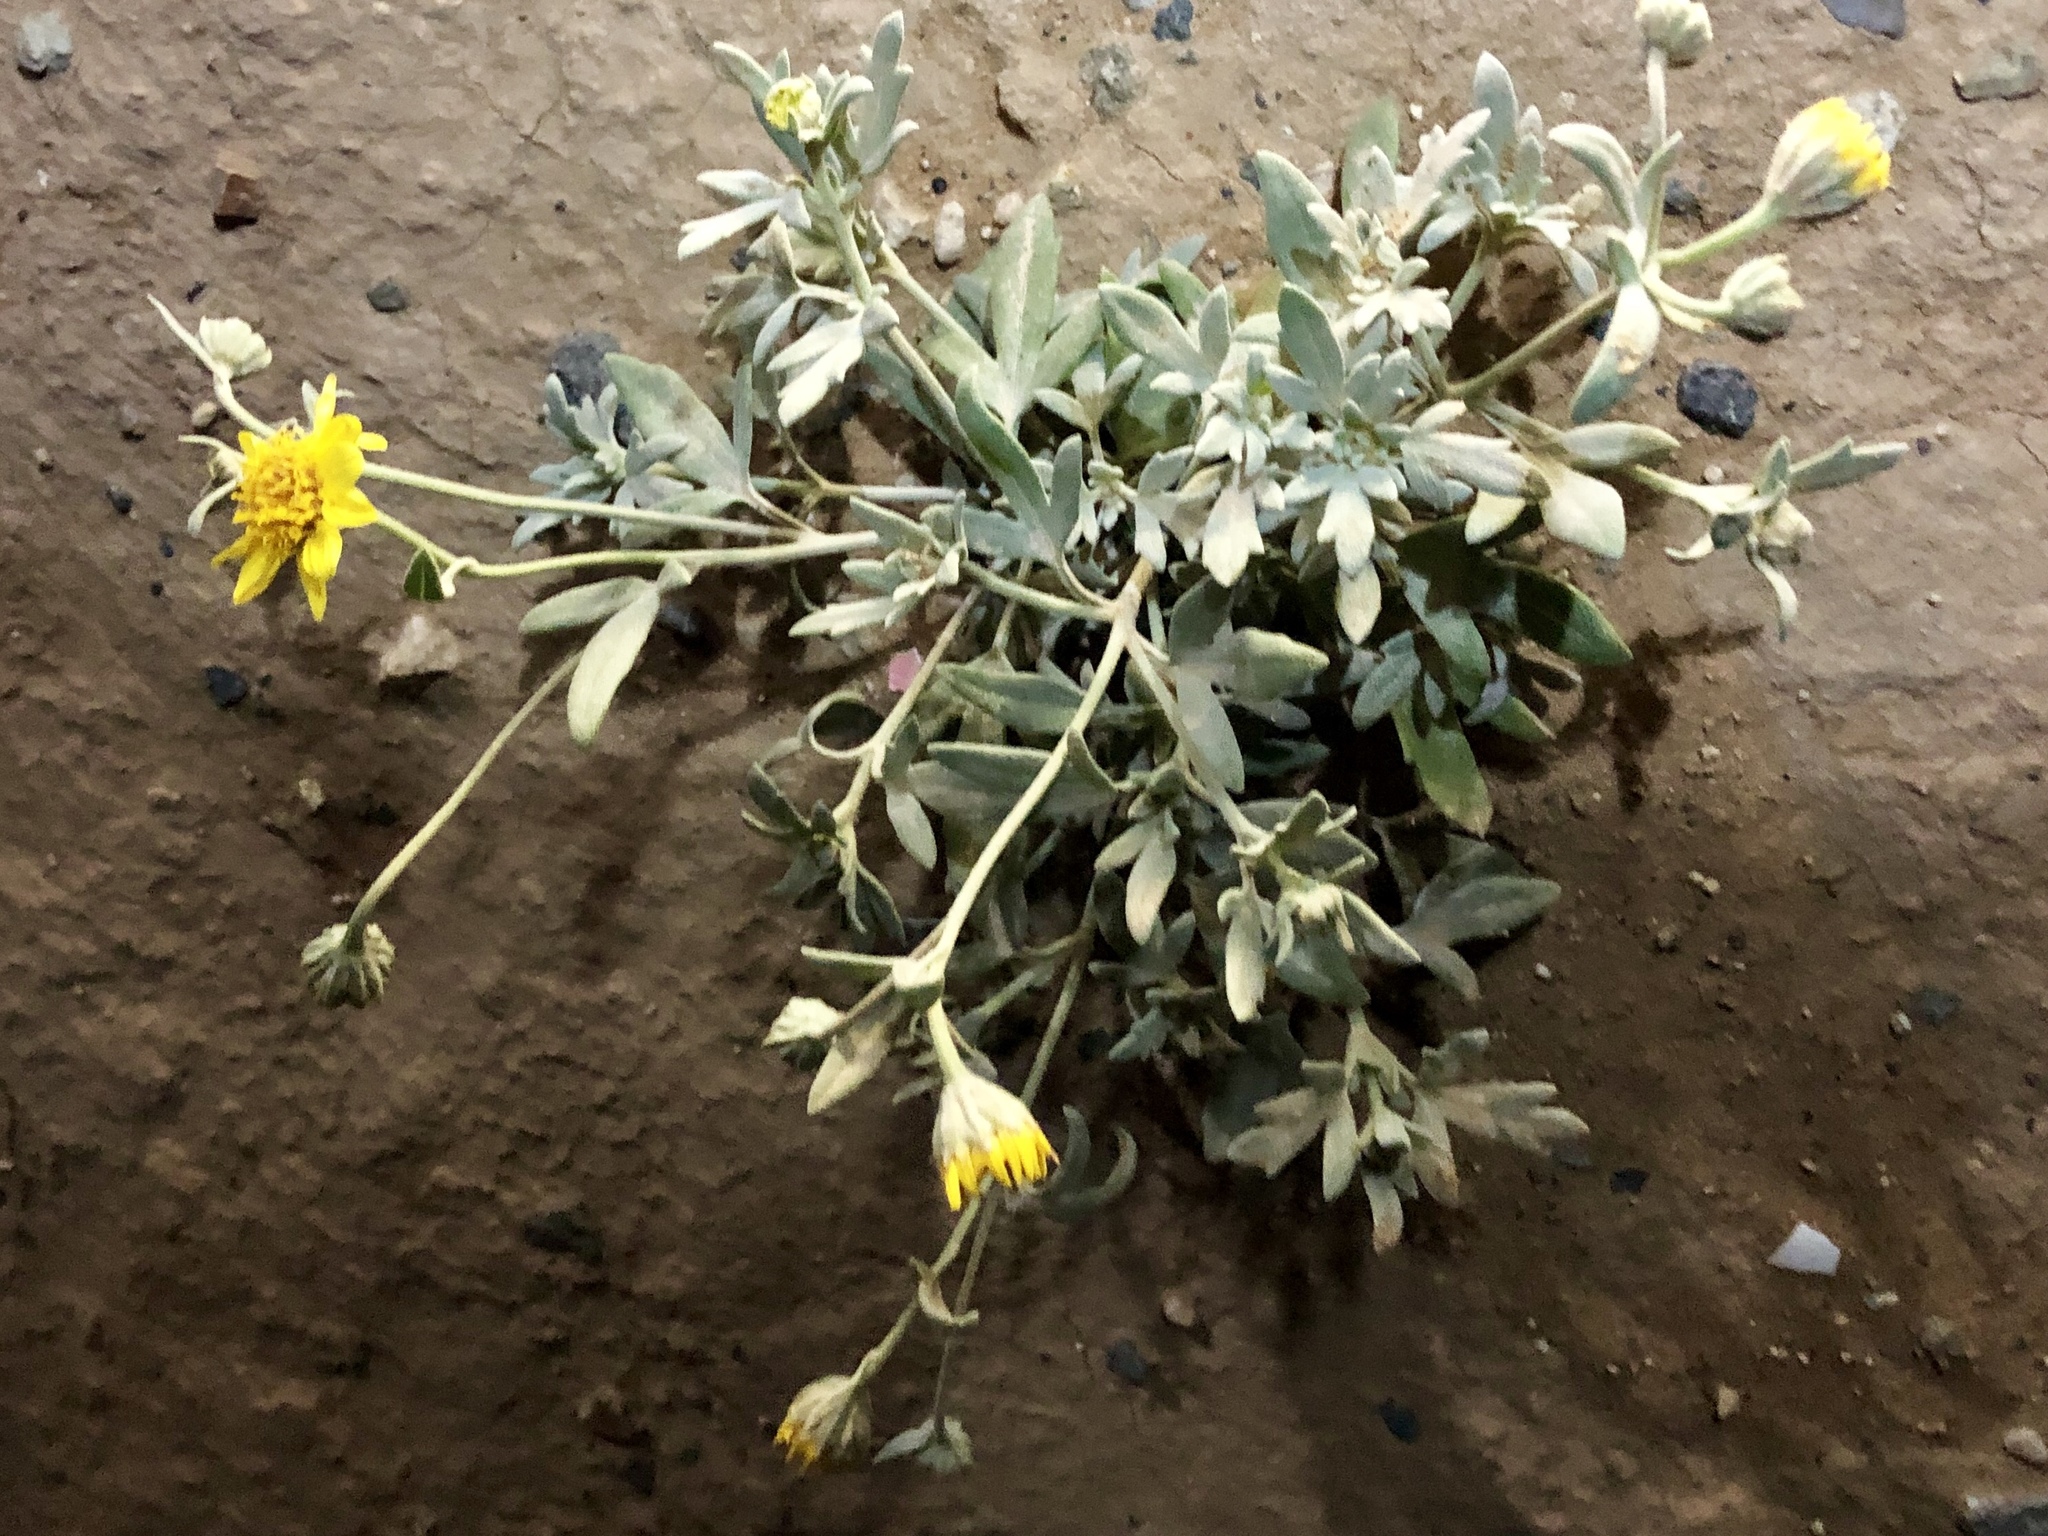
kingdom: Plantae
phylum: Tracheophyta
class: Magnoliopsida
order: Asterales
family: Asteraceae
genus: Picradeniopsis
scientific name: Picradeniopsis absinthifolia
